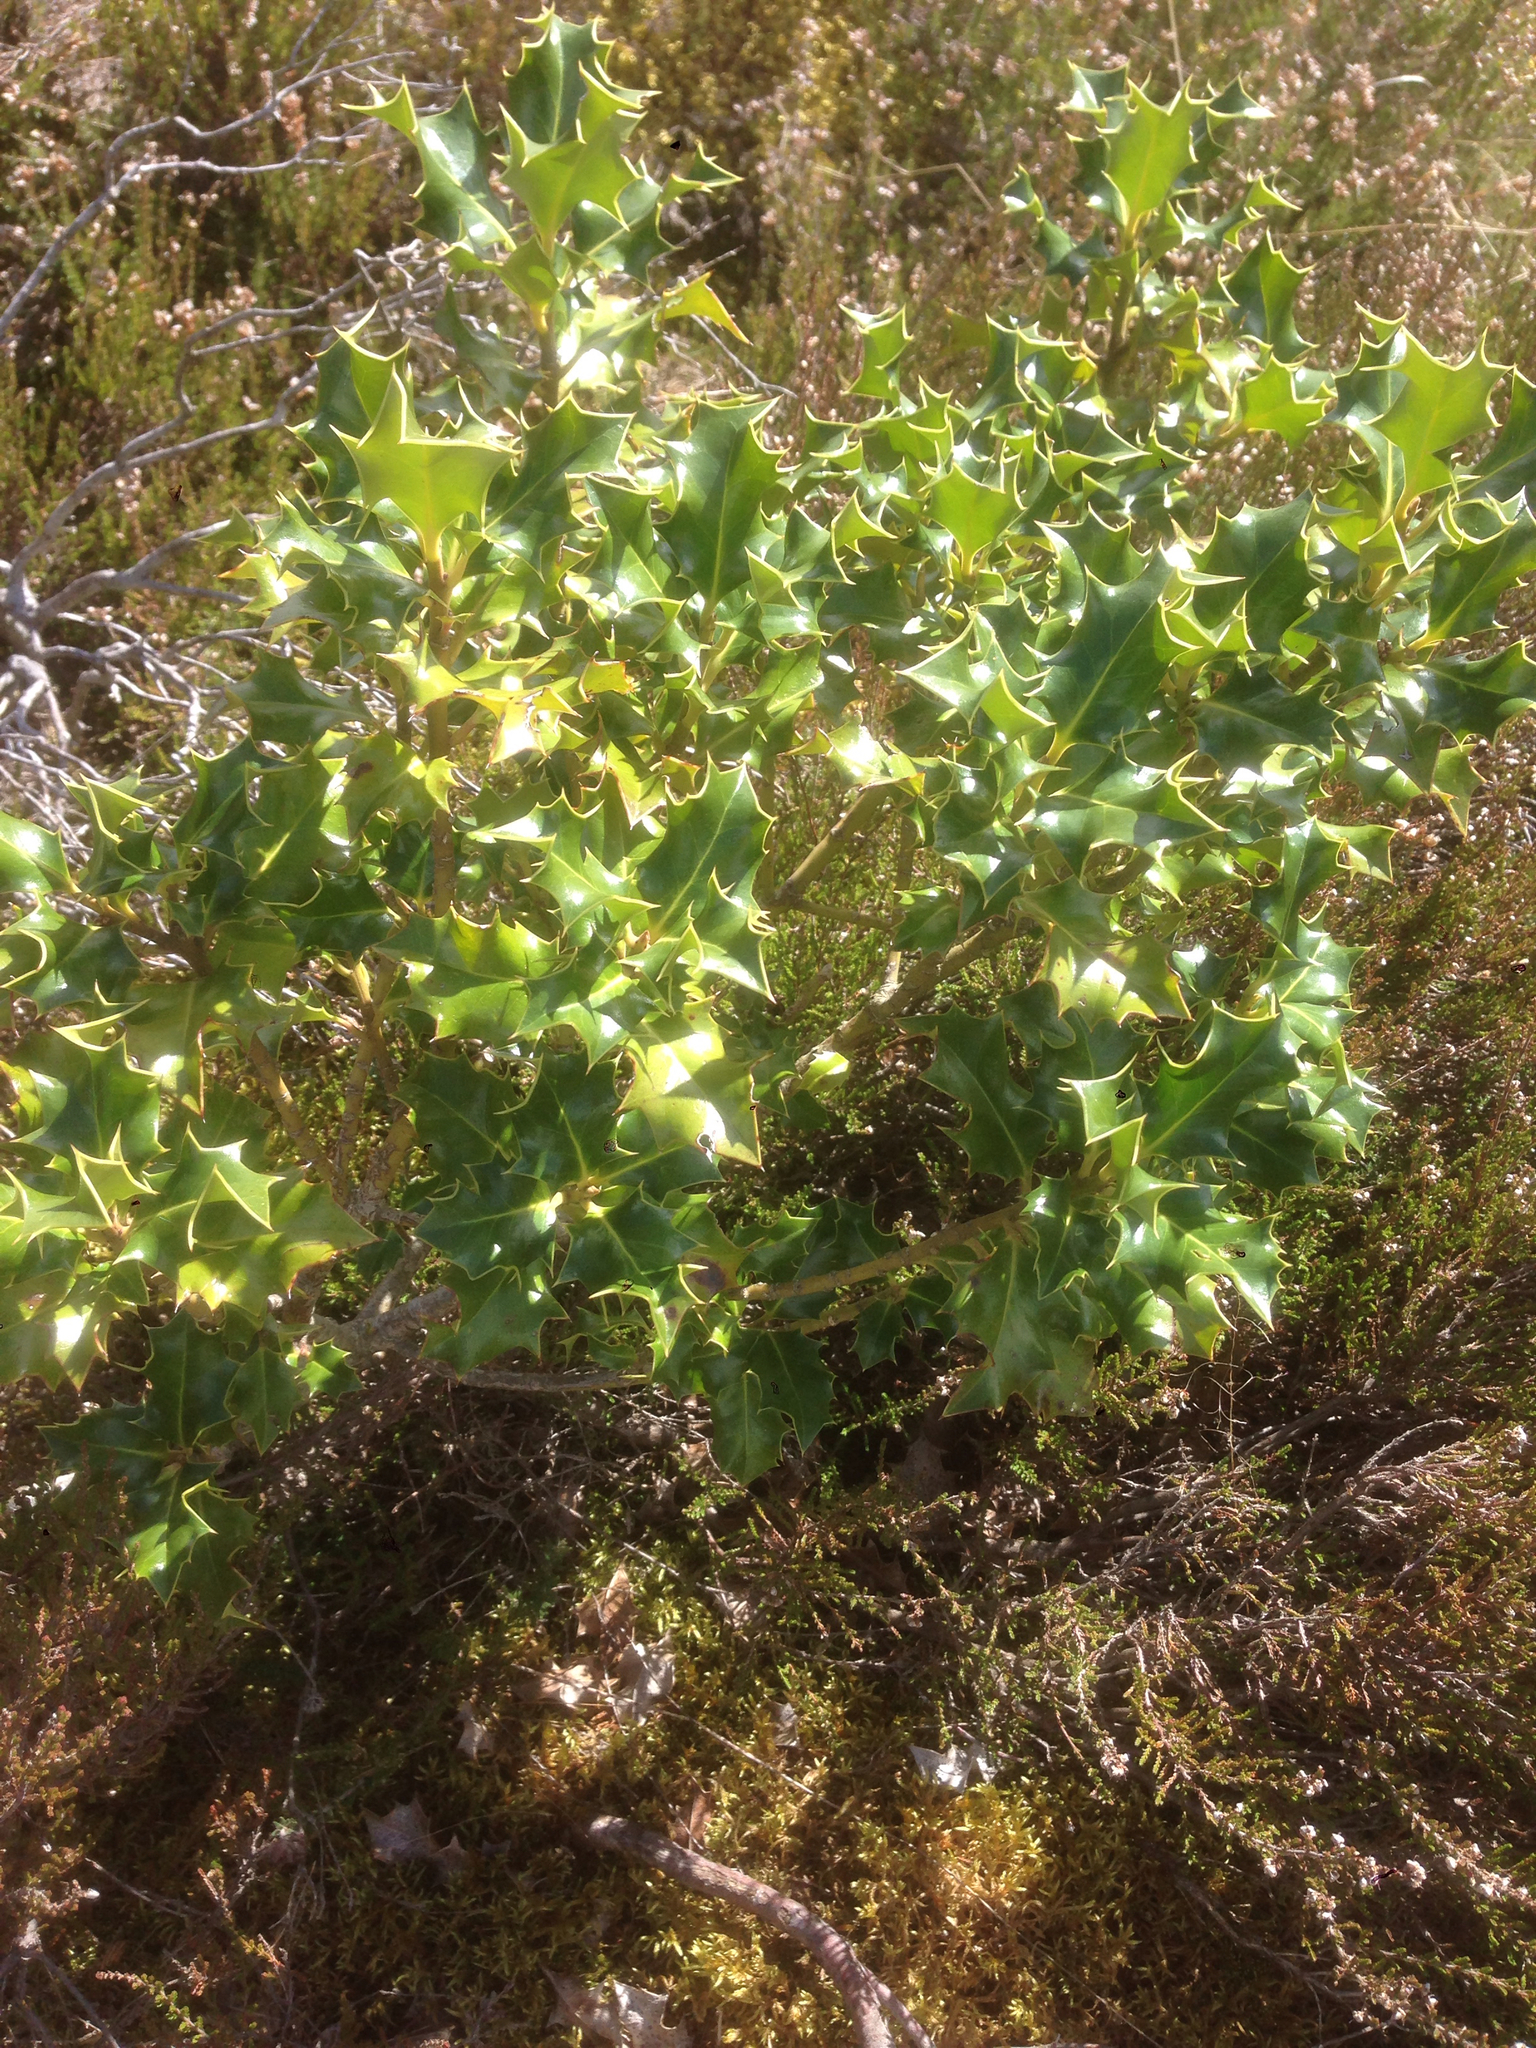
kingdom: Plantae
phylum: Tracheophyta
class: Magnoliopsida
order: Aquifoliales
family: Aquifoliaceae
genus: Ilex
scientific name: Ilex aquifolium
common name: English holly
